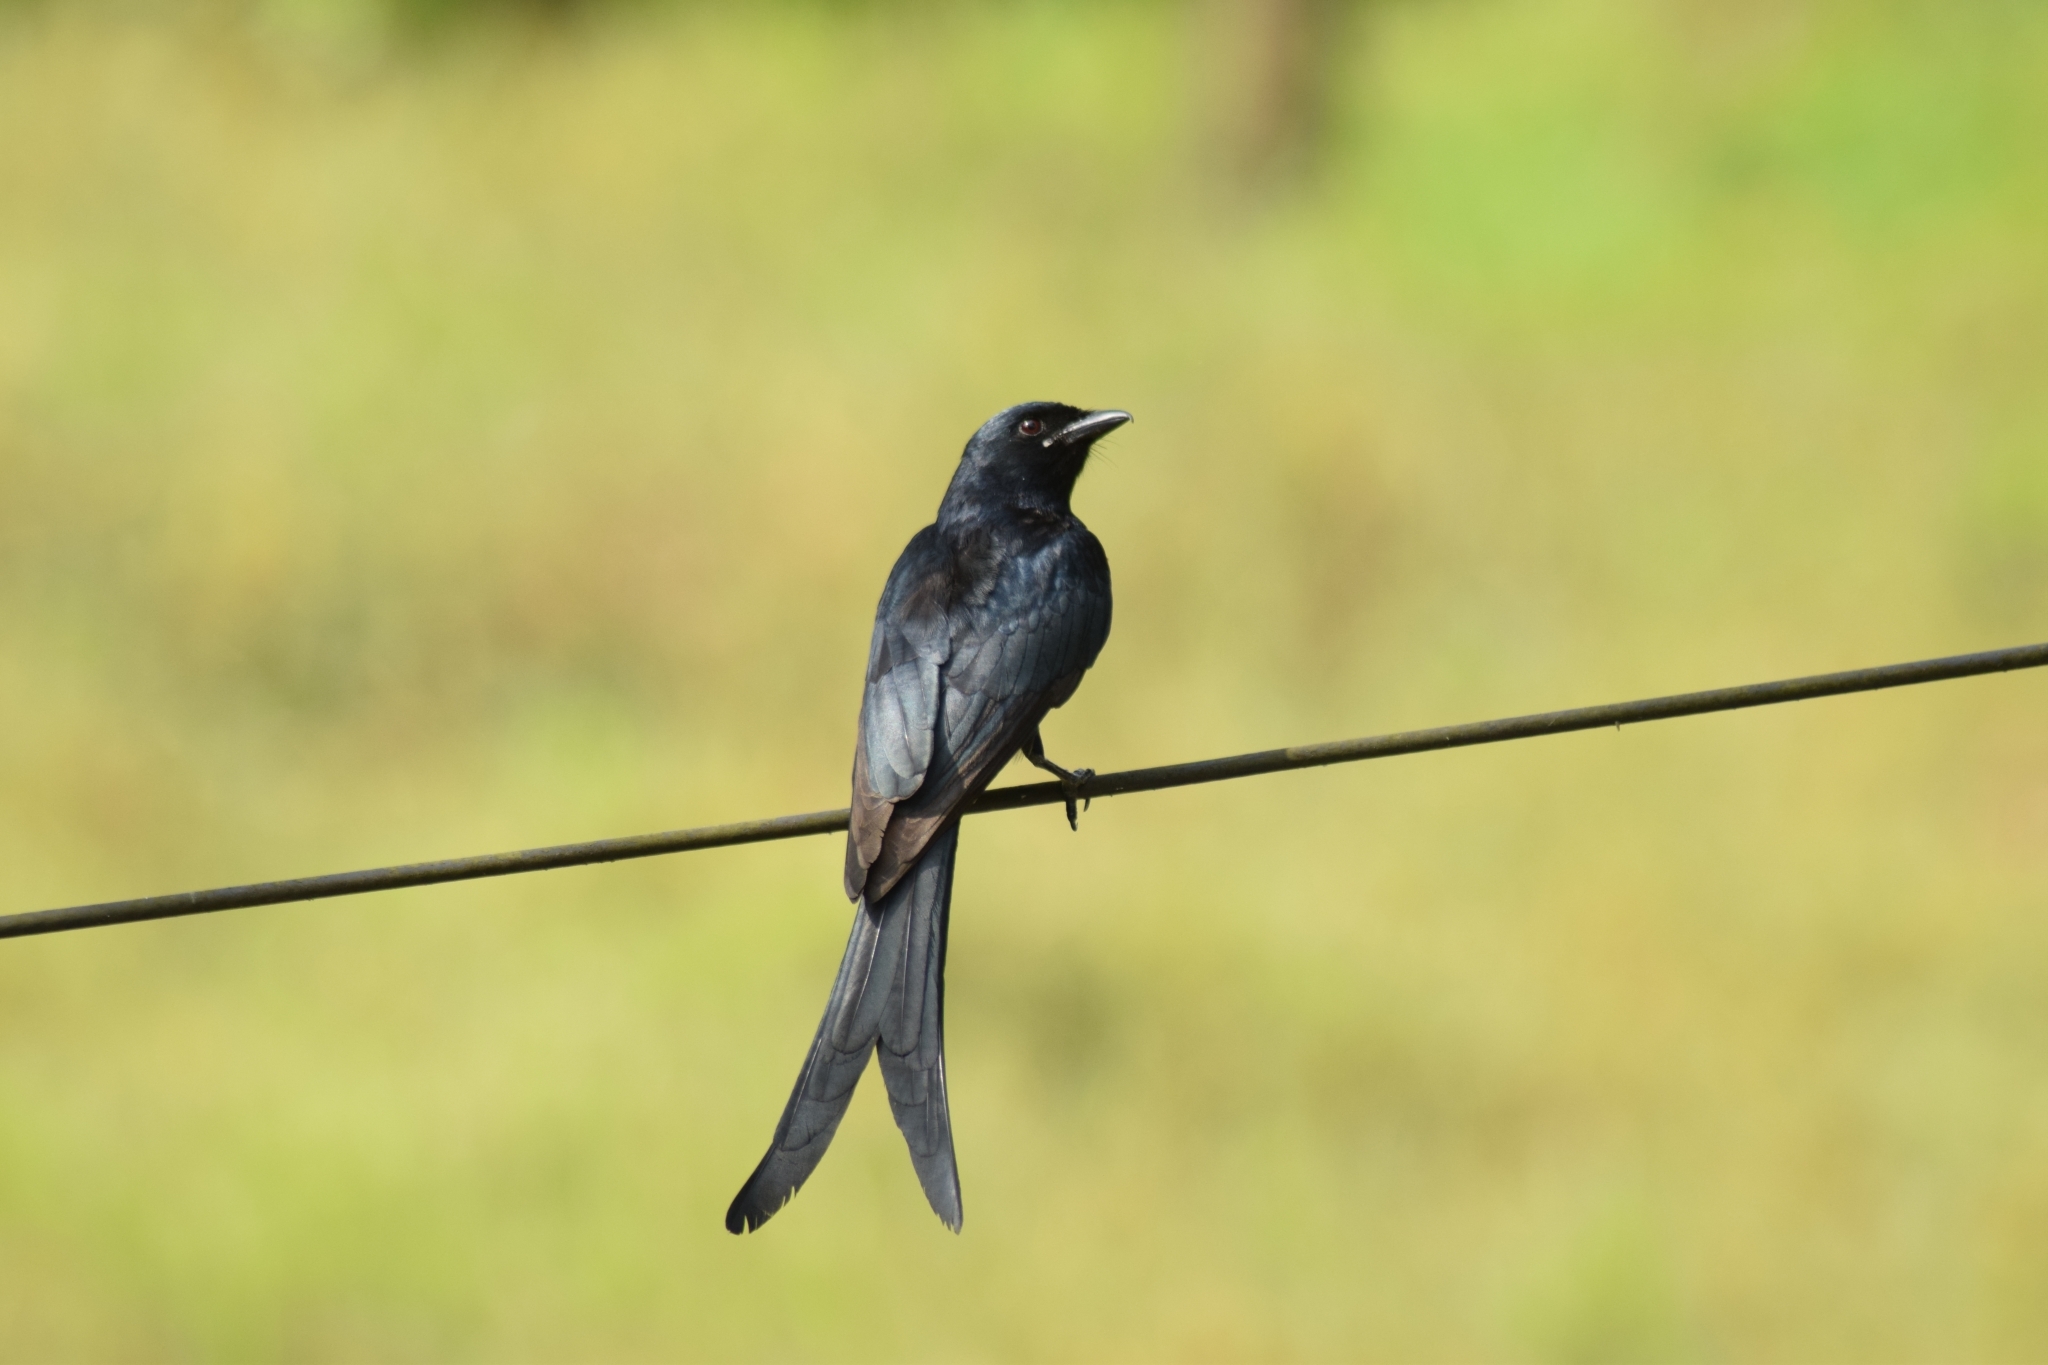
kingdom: Animalia
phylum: Chordata
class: Aves
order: Passeriformes
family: Dicruridae
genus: Dicrurus
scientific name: Dicrurus macrocercus
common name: Black drongo
